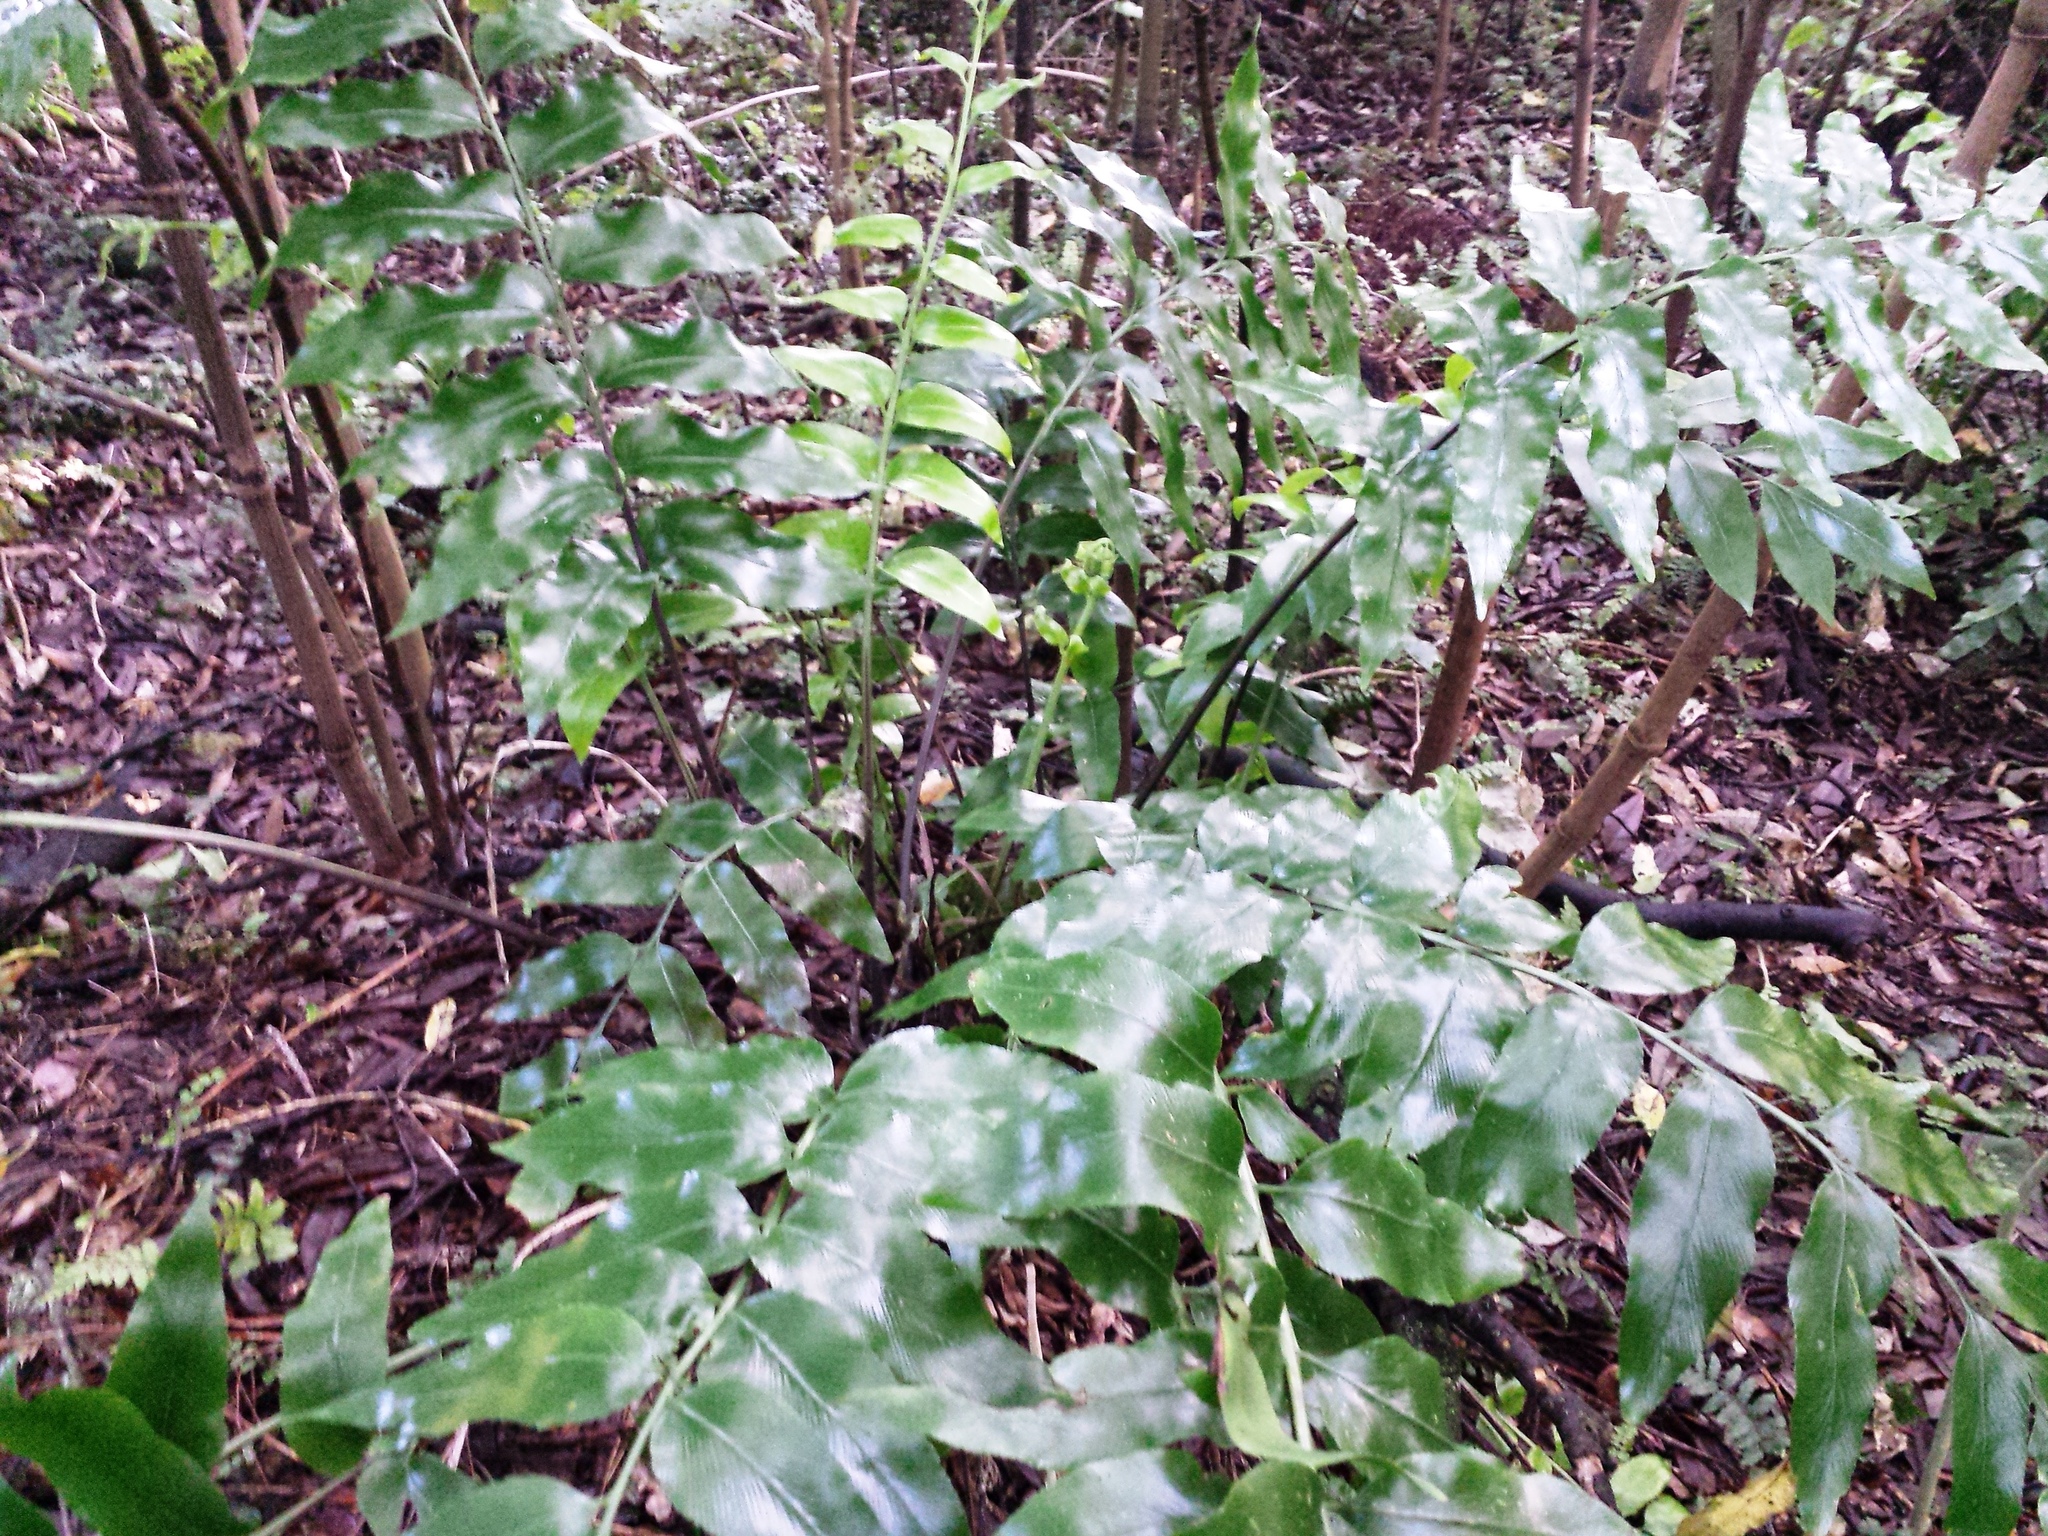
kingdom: Plantae
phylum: Tracheophyta
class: Polypodiopsida
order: Polypodiales
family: Aspleniaceae
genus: Asplenium
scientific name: Asplenium oblongifolium
